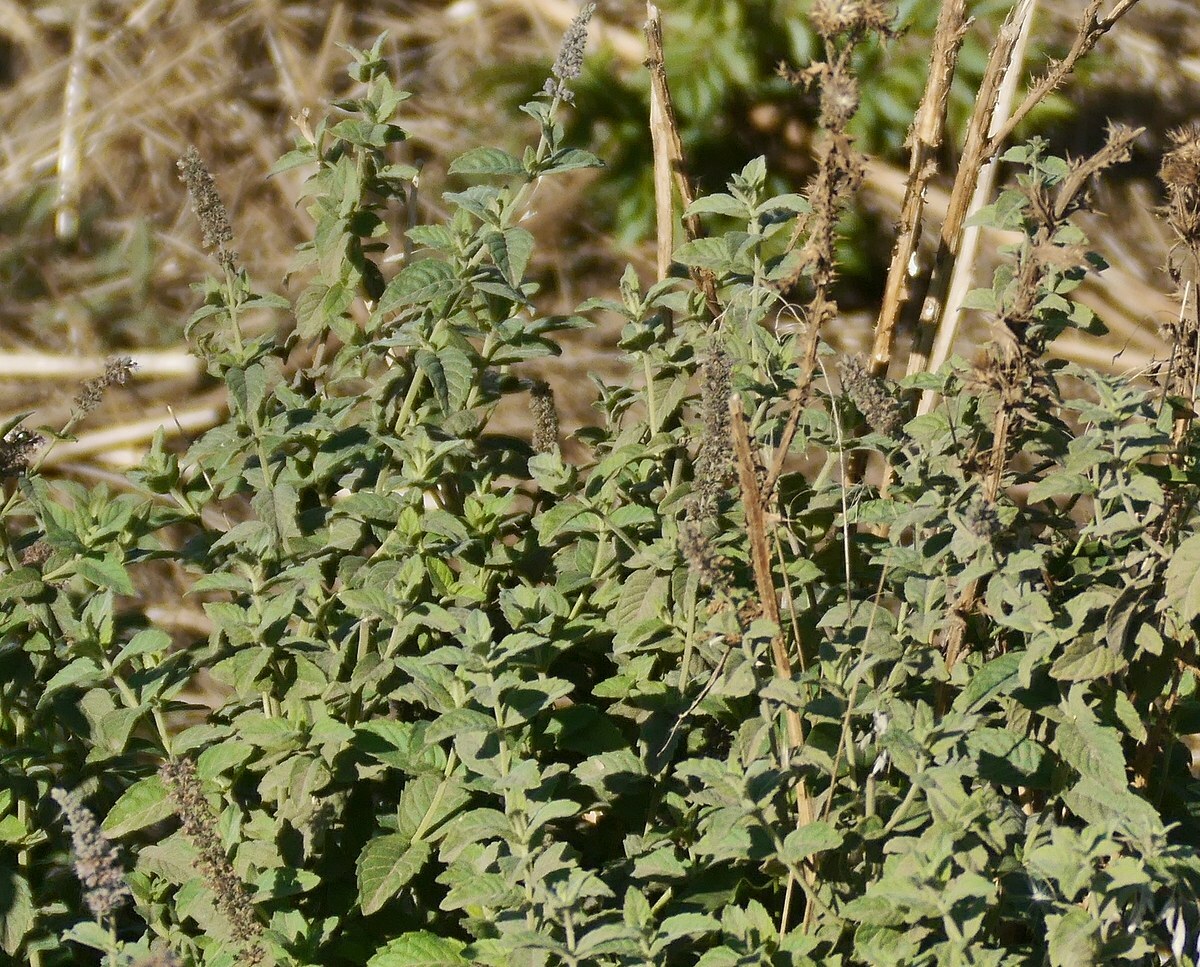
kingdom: Plantae
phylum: Tracheophyta
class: Magnoliopsida
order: Lamiales
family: Lamiaceae
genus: Mentha
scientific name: Mentha longifolia
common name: Horse mint
